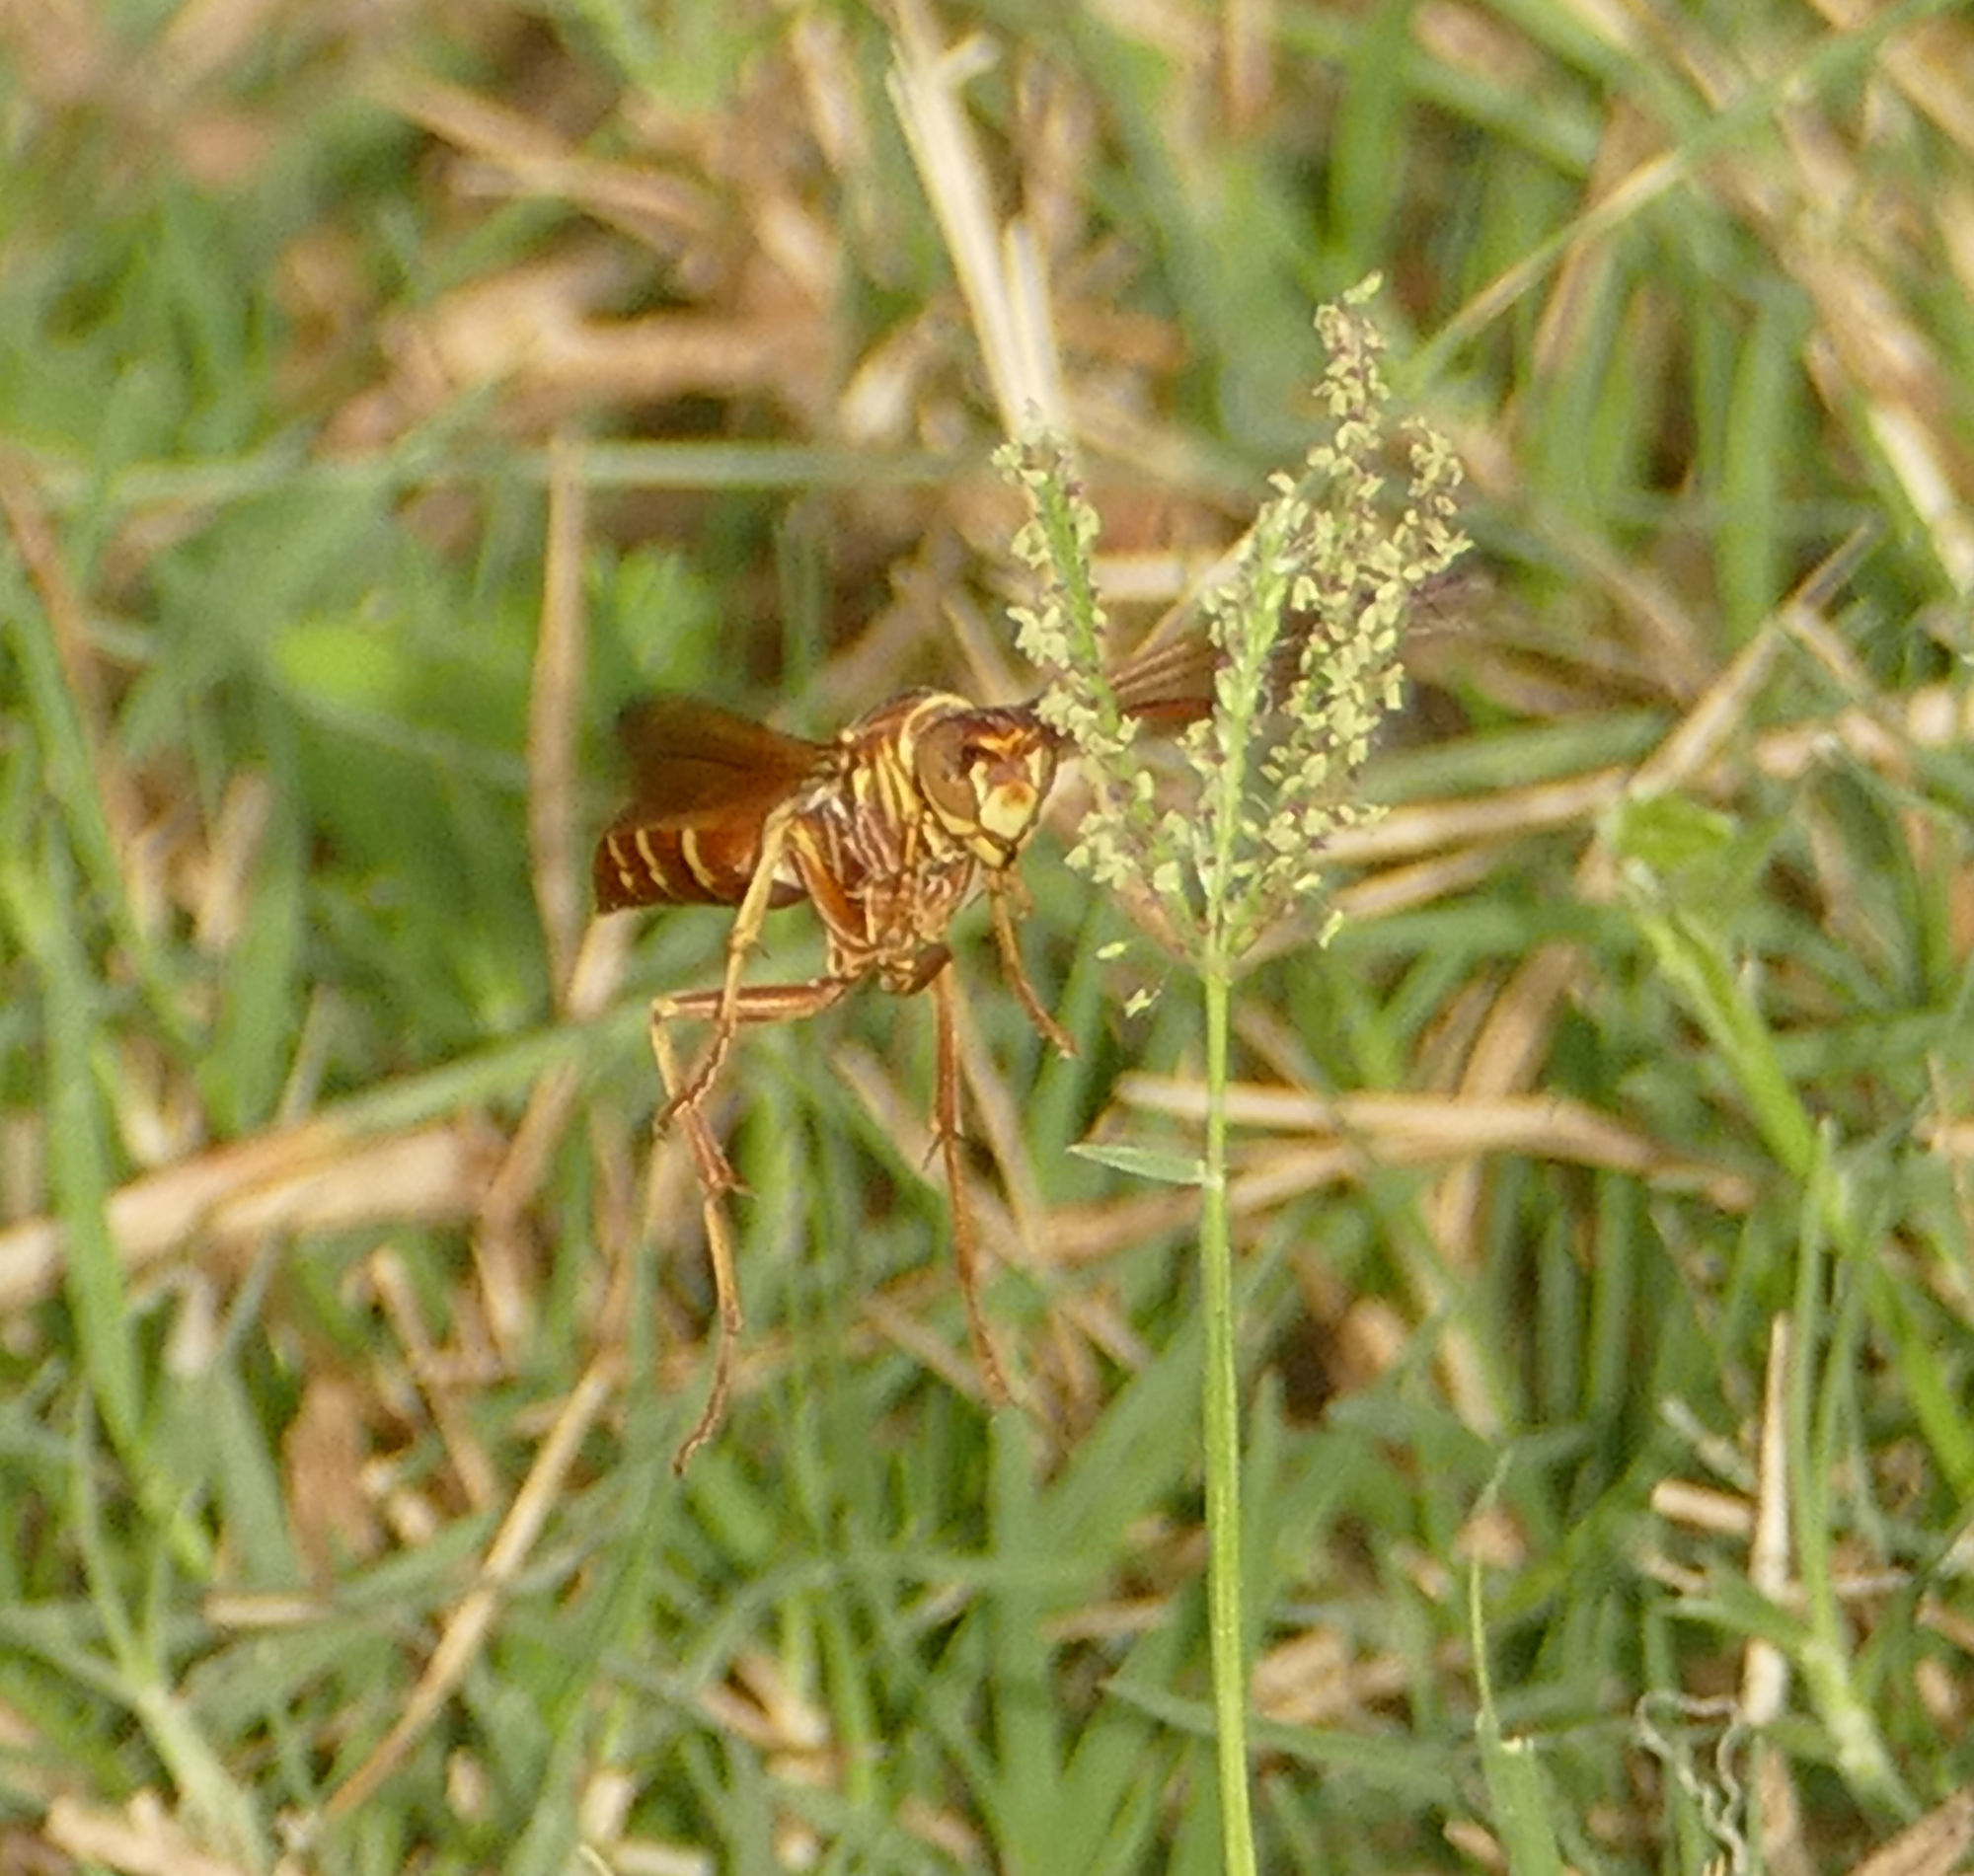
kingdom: Animalia
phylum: Arthropoda
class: Insecta
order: Hymenoptera
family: Eumenidae
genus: Polistes
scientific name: Polistes bellicosus
